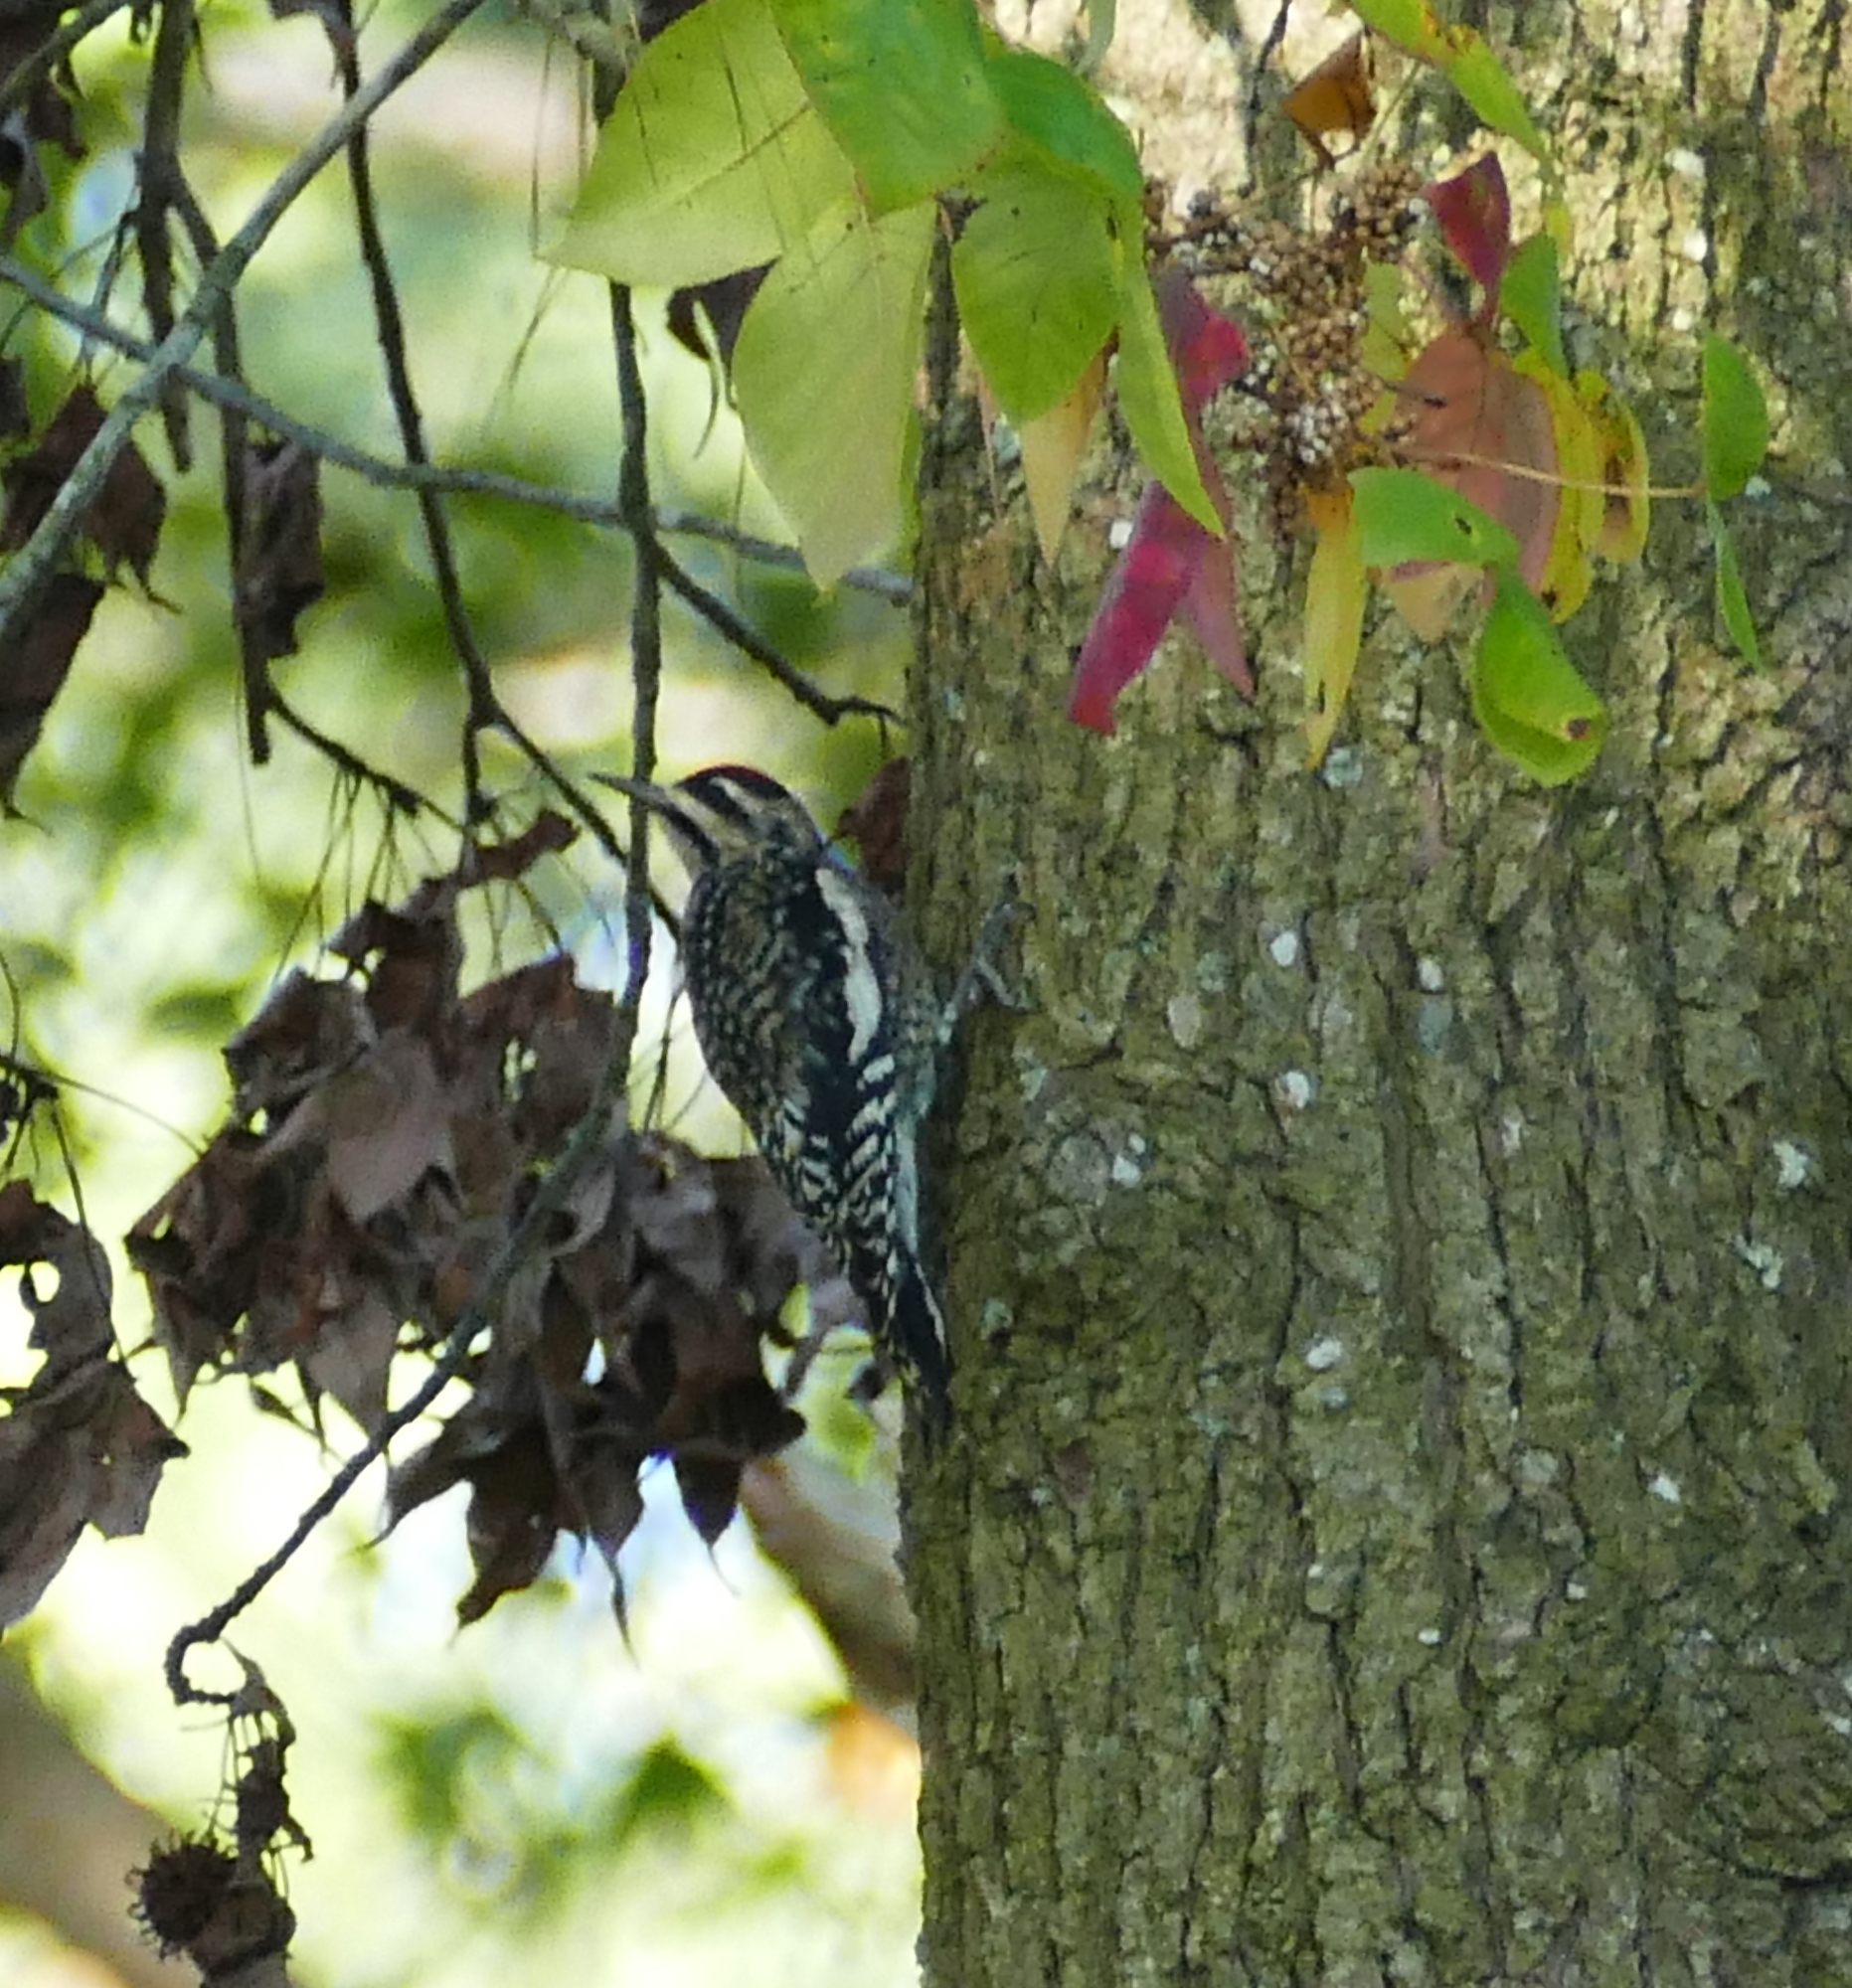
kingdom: Animalia
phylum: Chordata
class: Aves
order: Piciformes
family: Picidae
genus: Sphyrapicus
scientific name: Sphyrapicus varius
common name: Yellow-bellied sapsucker
